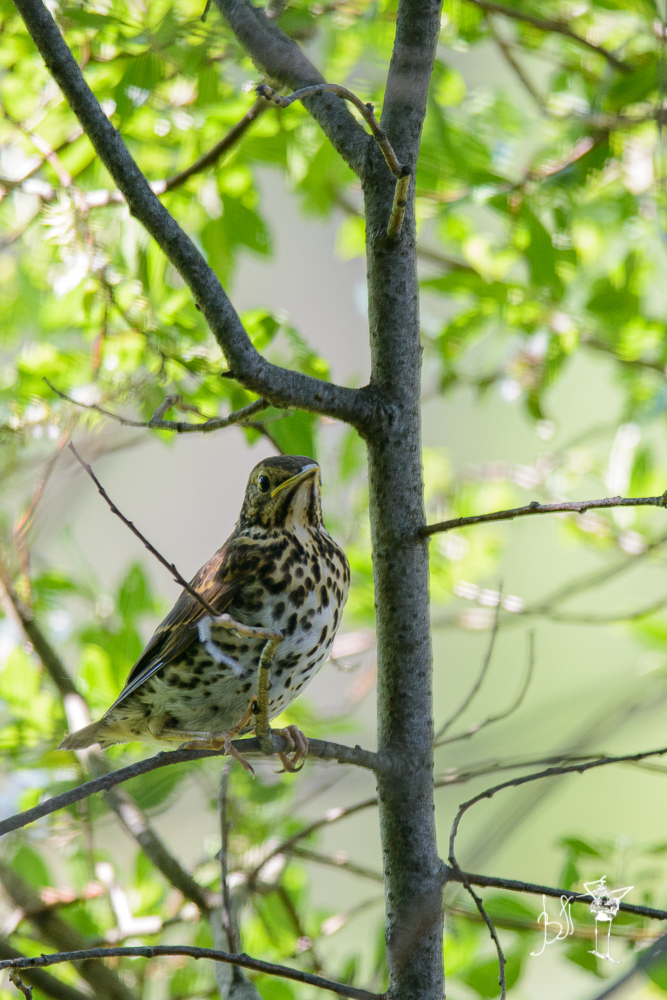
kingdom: Animalia
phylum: Chordata
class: Aves
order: Passeriformes
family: Turdidae
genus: Turdus
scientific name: Turdus philomelos
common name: Song thrush
